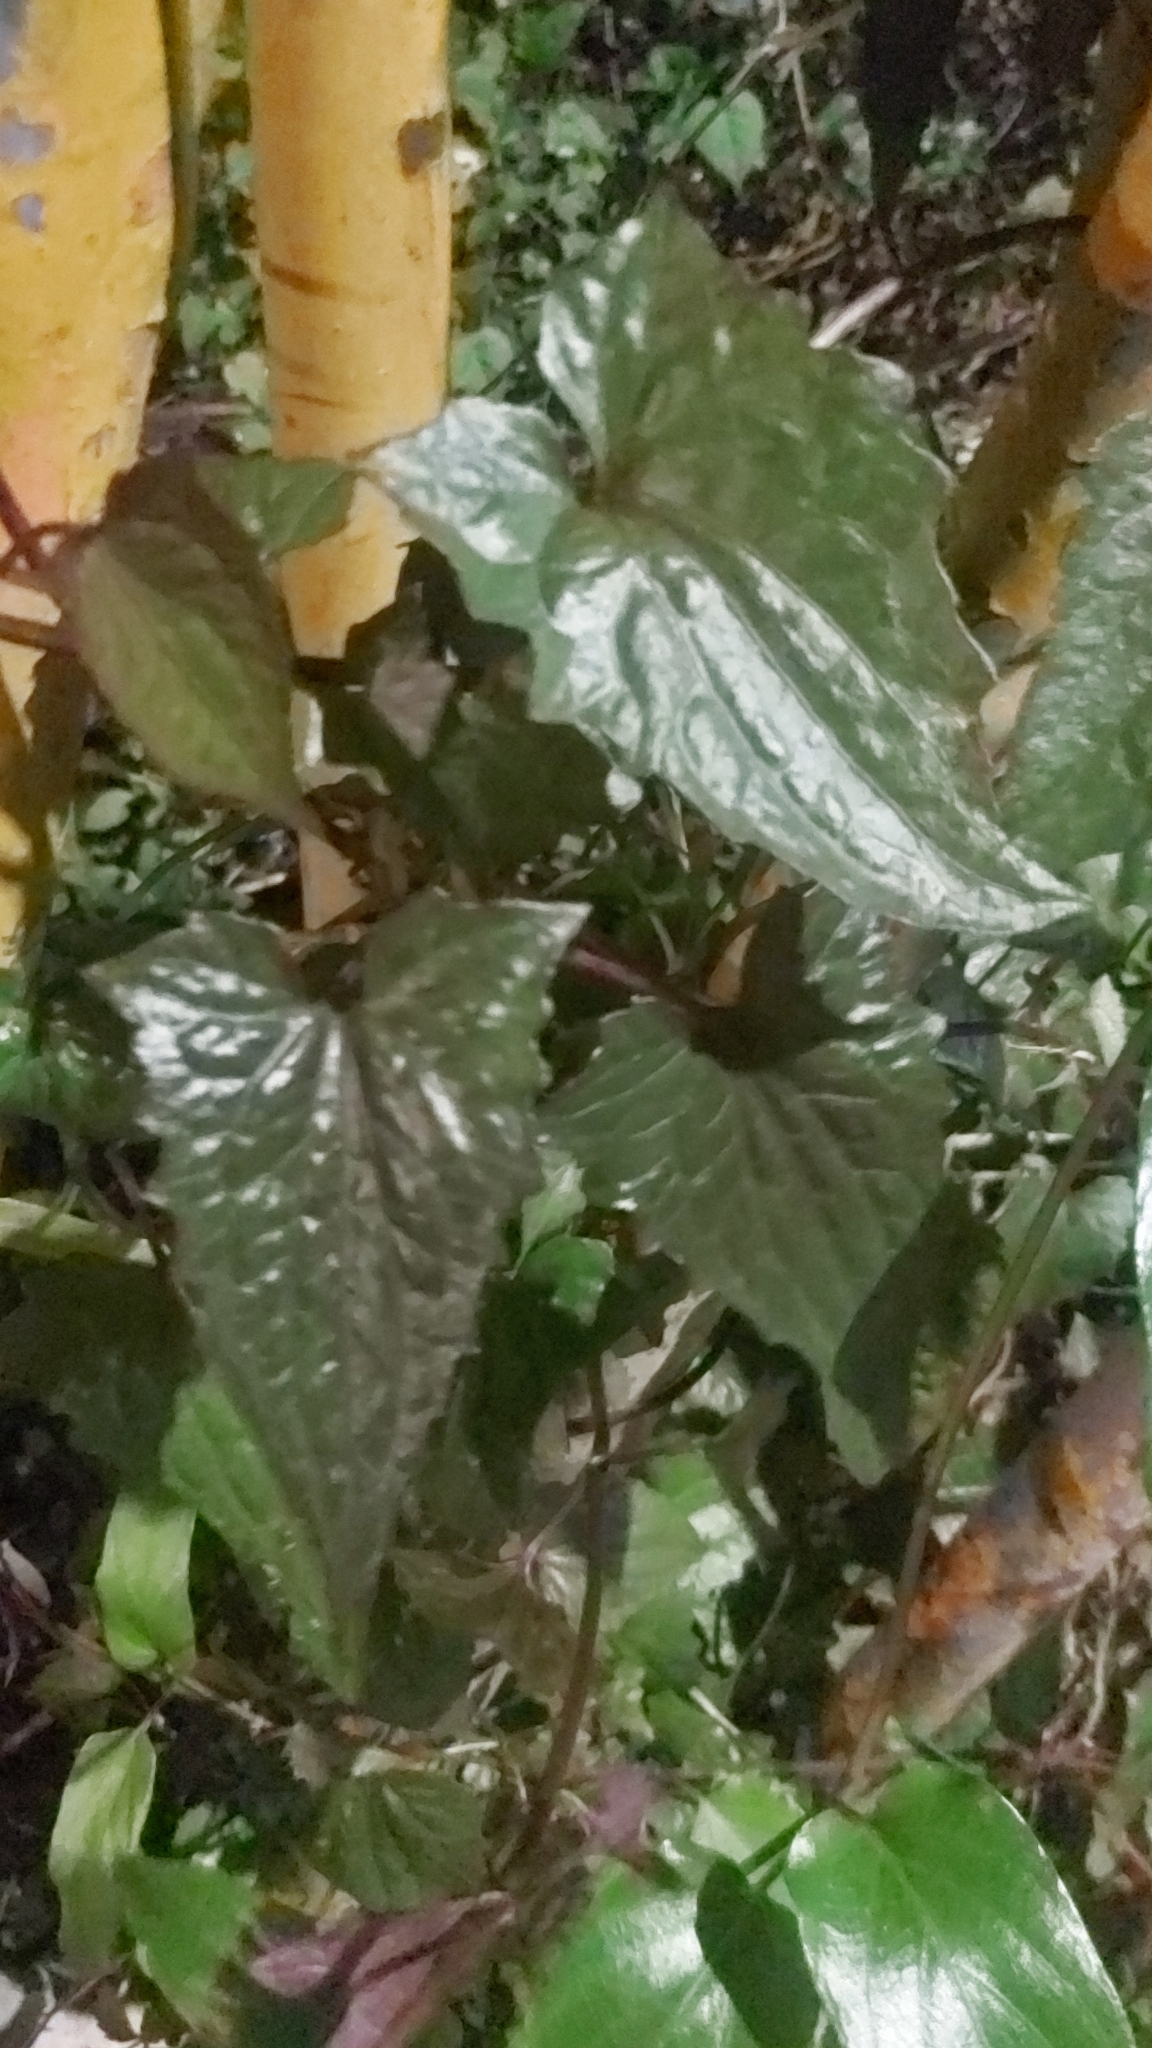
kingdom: Plantae
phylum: Tracheophyta
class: Magnoliopsida
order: Asterales
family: Asteraceae
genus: Mikania
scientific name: Mikania micrantha
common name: Mile-a-minute
